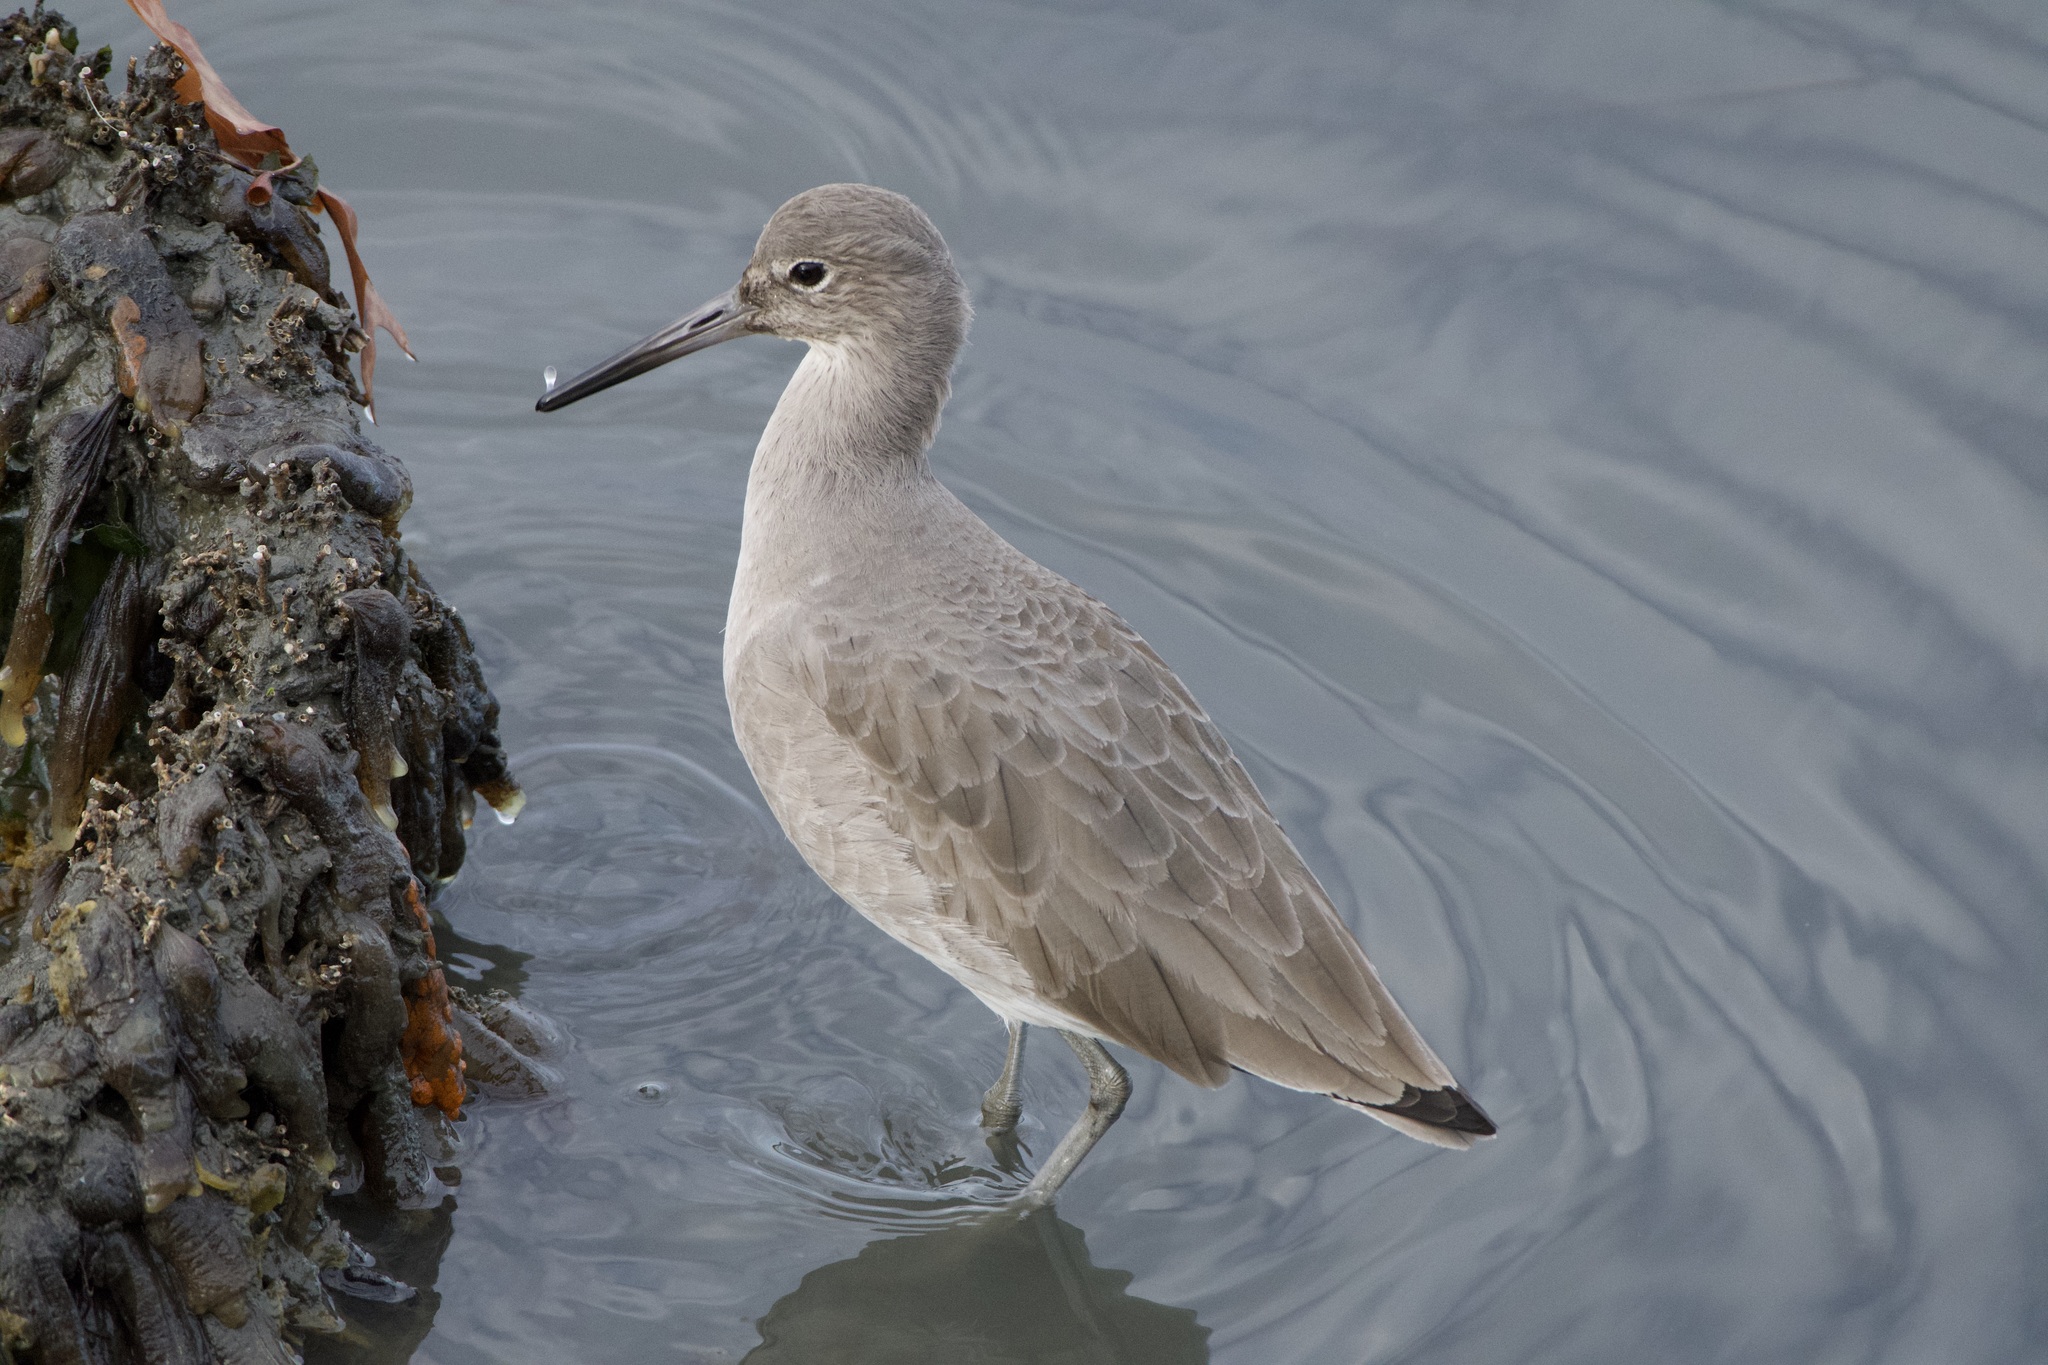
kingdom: Animalia
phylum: Chordata
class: Aves
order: Charadriiformes
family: Scolopacidae
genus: Tringa
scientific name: Tringa semipalmata
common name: Willet
